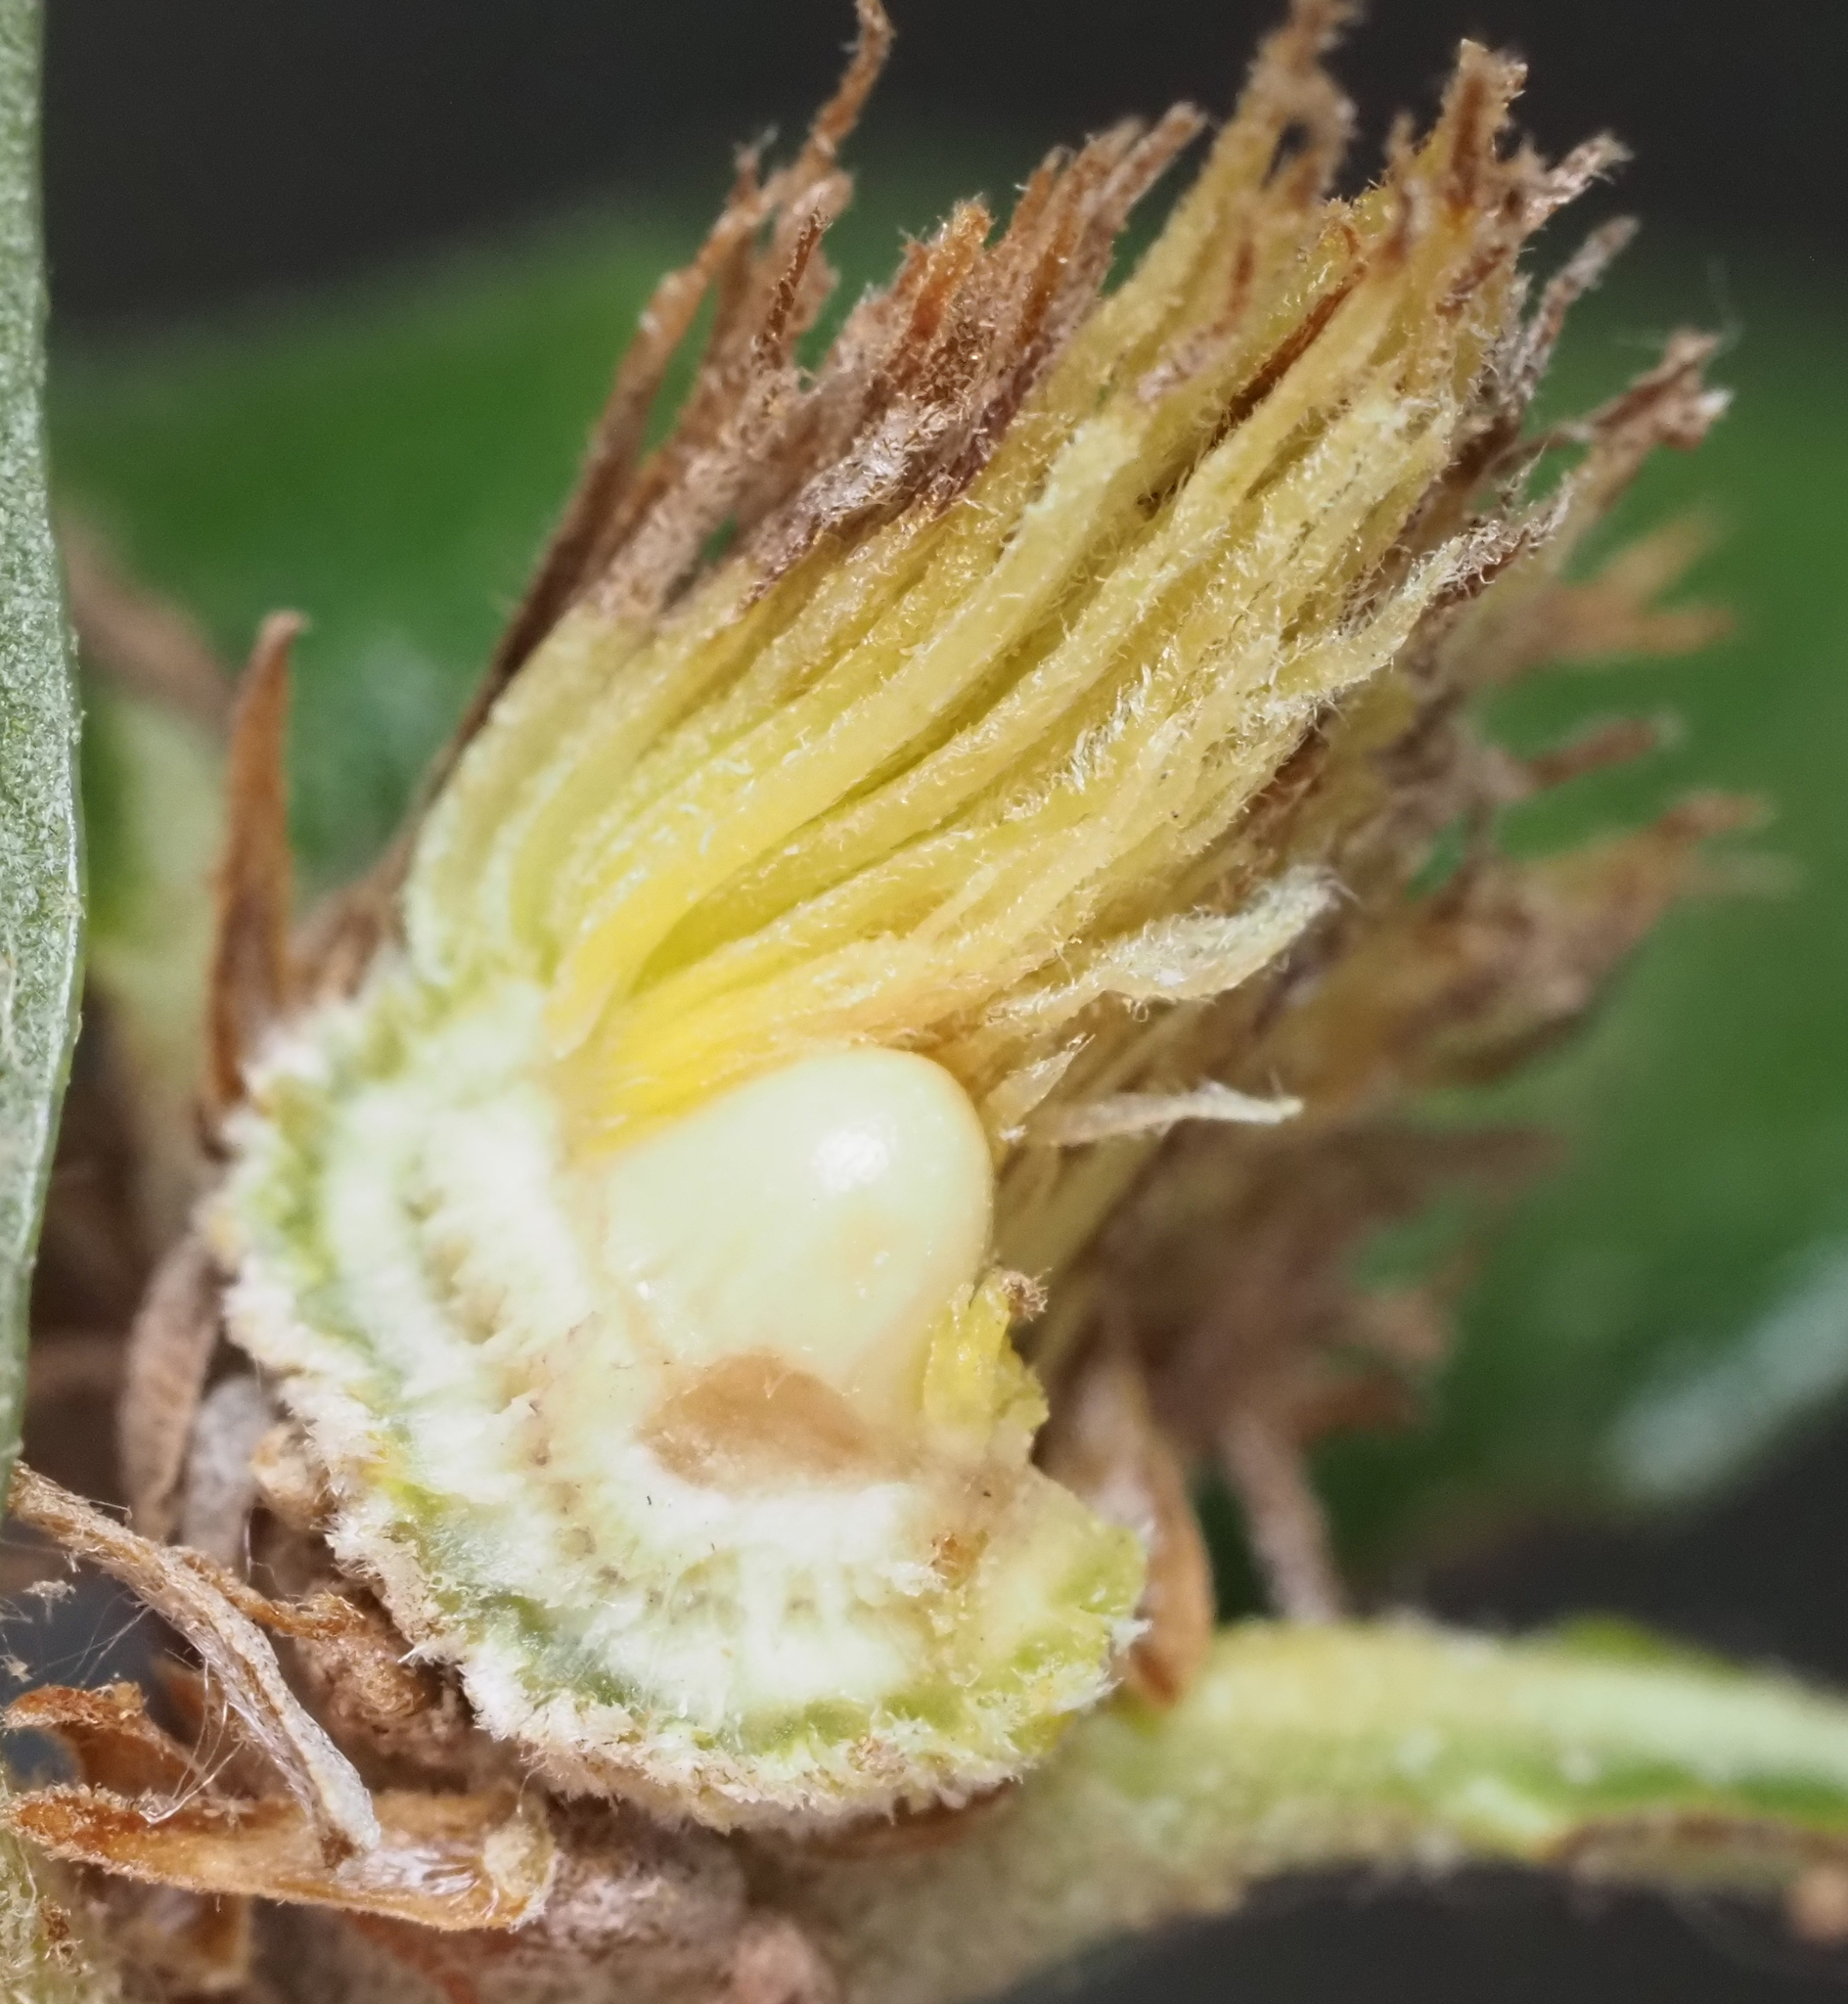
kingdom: Animalia
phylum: Arthropoda
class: Insecta
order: Hymenoptera
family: Cynipidae
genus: Andricus
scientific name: Andricus quercusfoliatus
